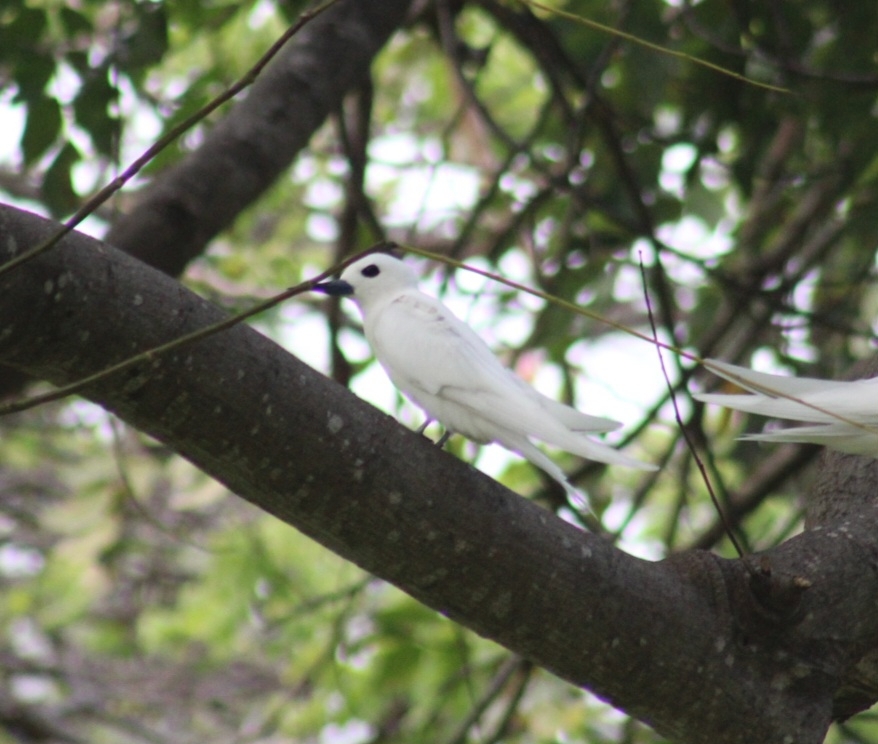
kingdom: Animalia
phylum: Chordata
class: Aves
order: Charadriiformes
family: Laridae
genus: Gygis
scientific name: Gygis alba
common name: White tern
